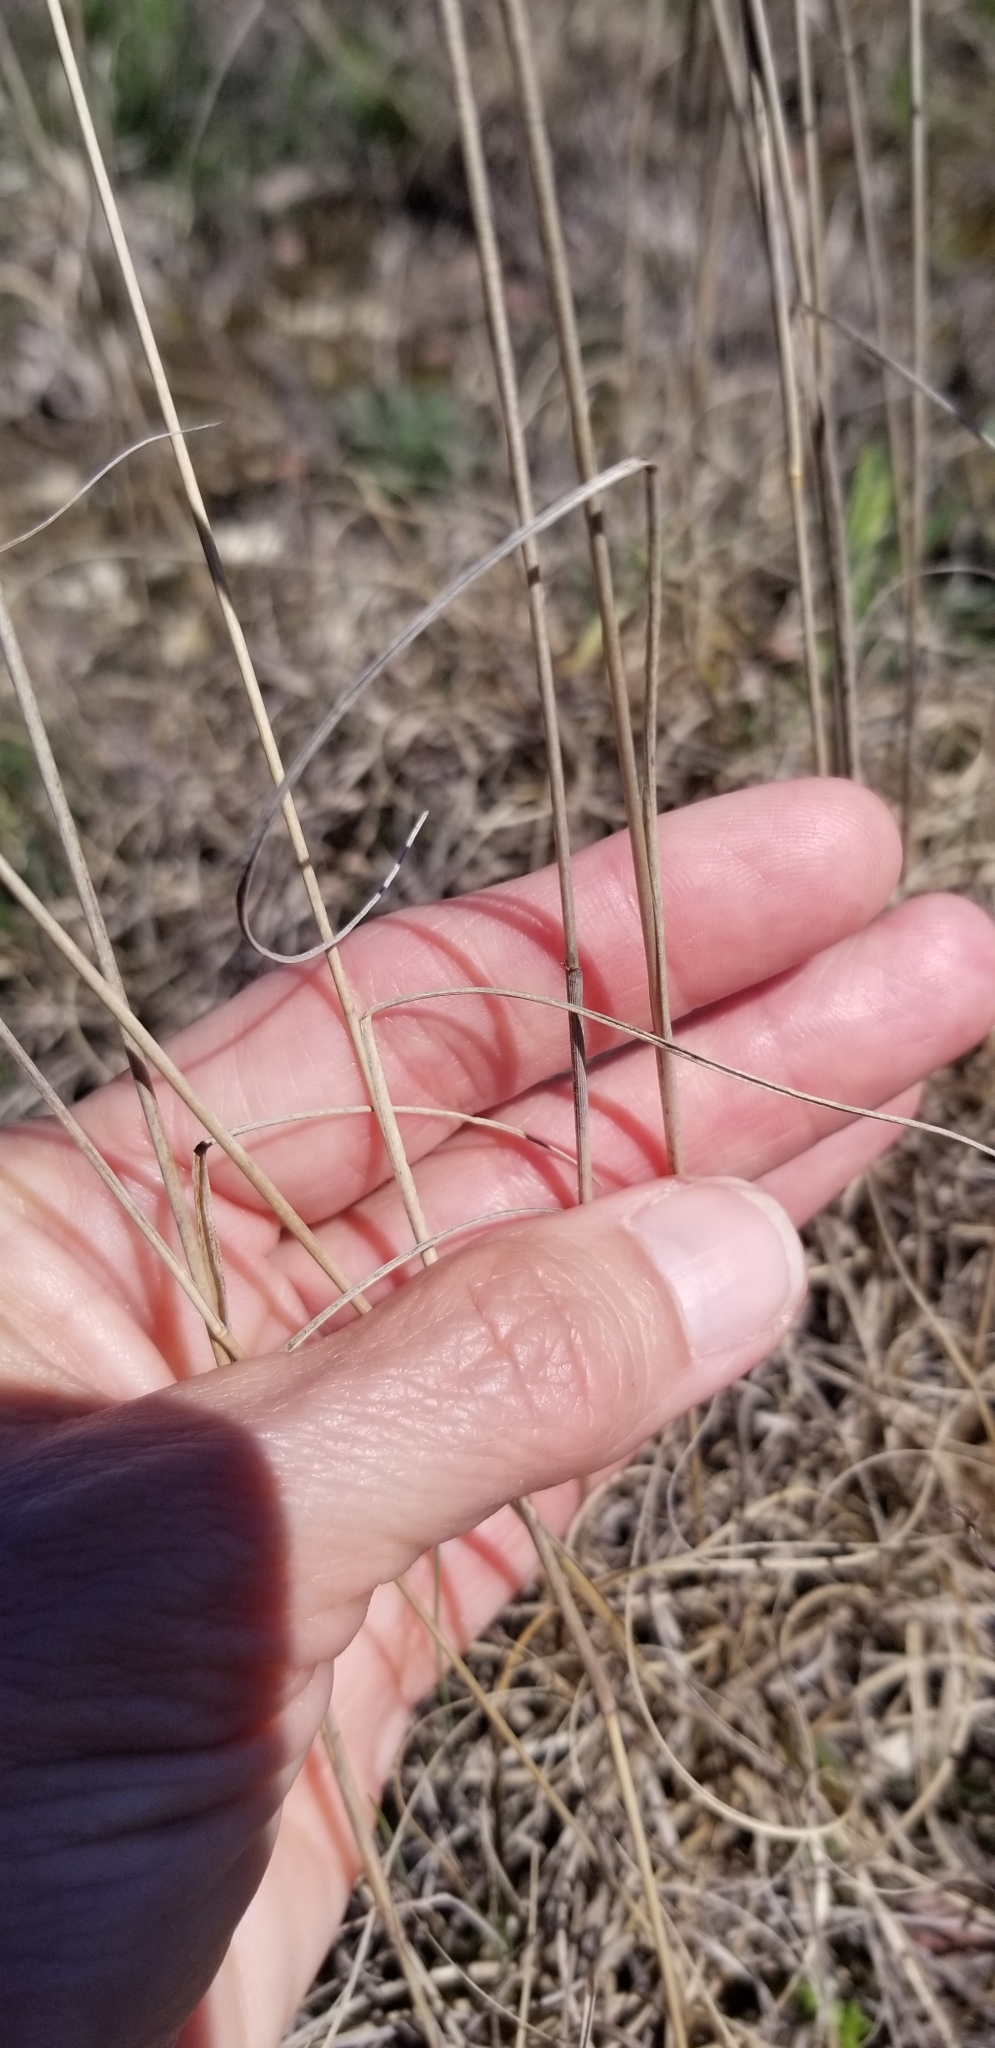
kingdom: Plantae
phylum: Tracheophyta
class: Liliopsida
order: Poales
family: Poaceae
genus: Bouteloua
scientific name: Bouteloua pectinata
